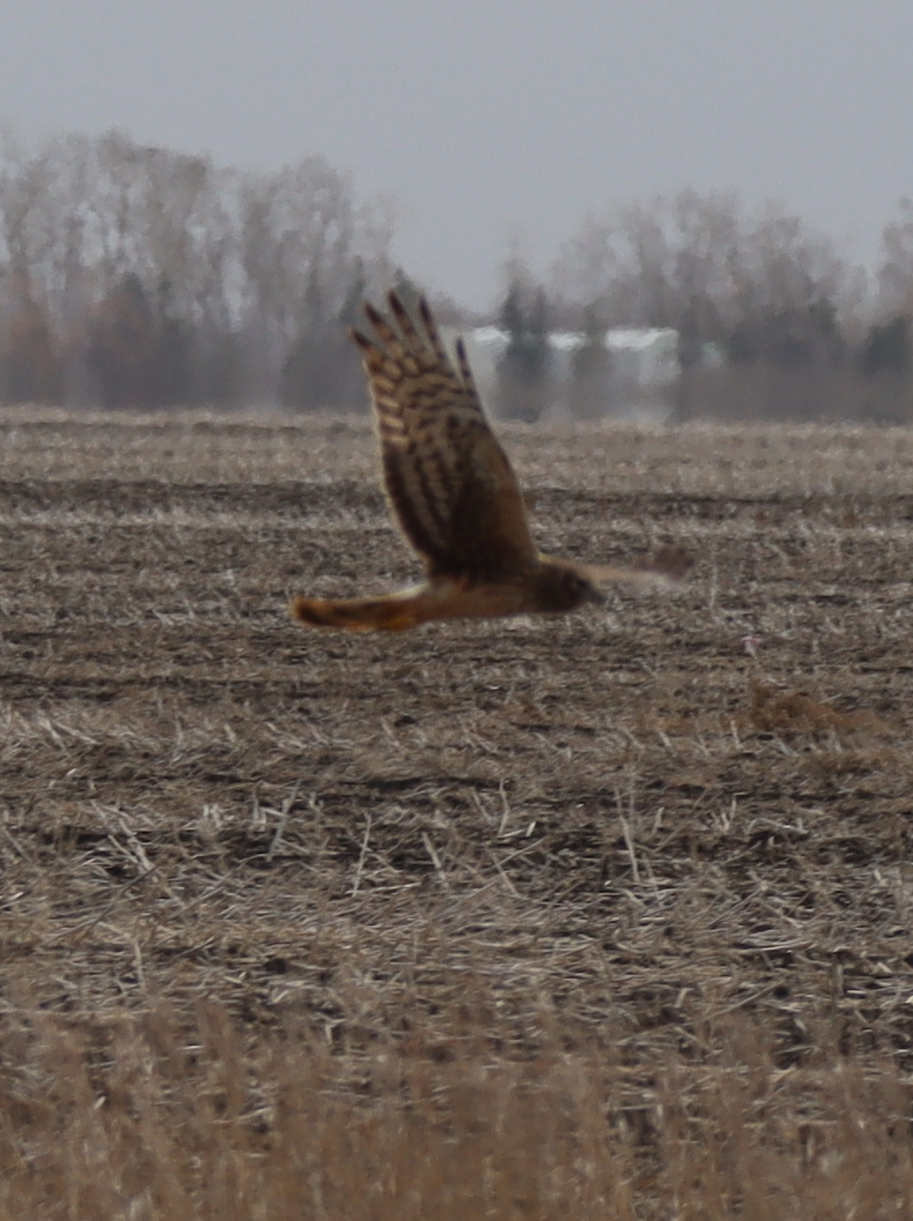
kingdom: Animalia
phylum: Chordata
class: Aves
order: Accipitriformes
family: Accipitridae
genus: Circus
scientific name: Circus cyaneus
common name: Hen harrier
